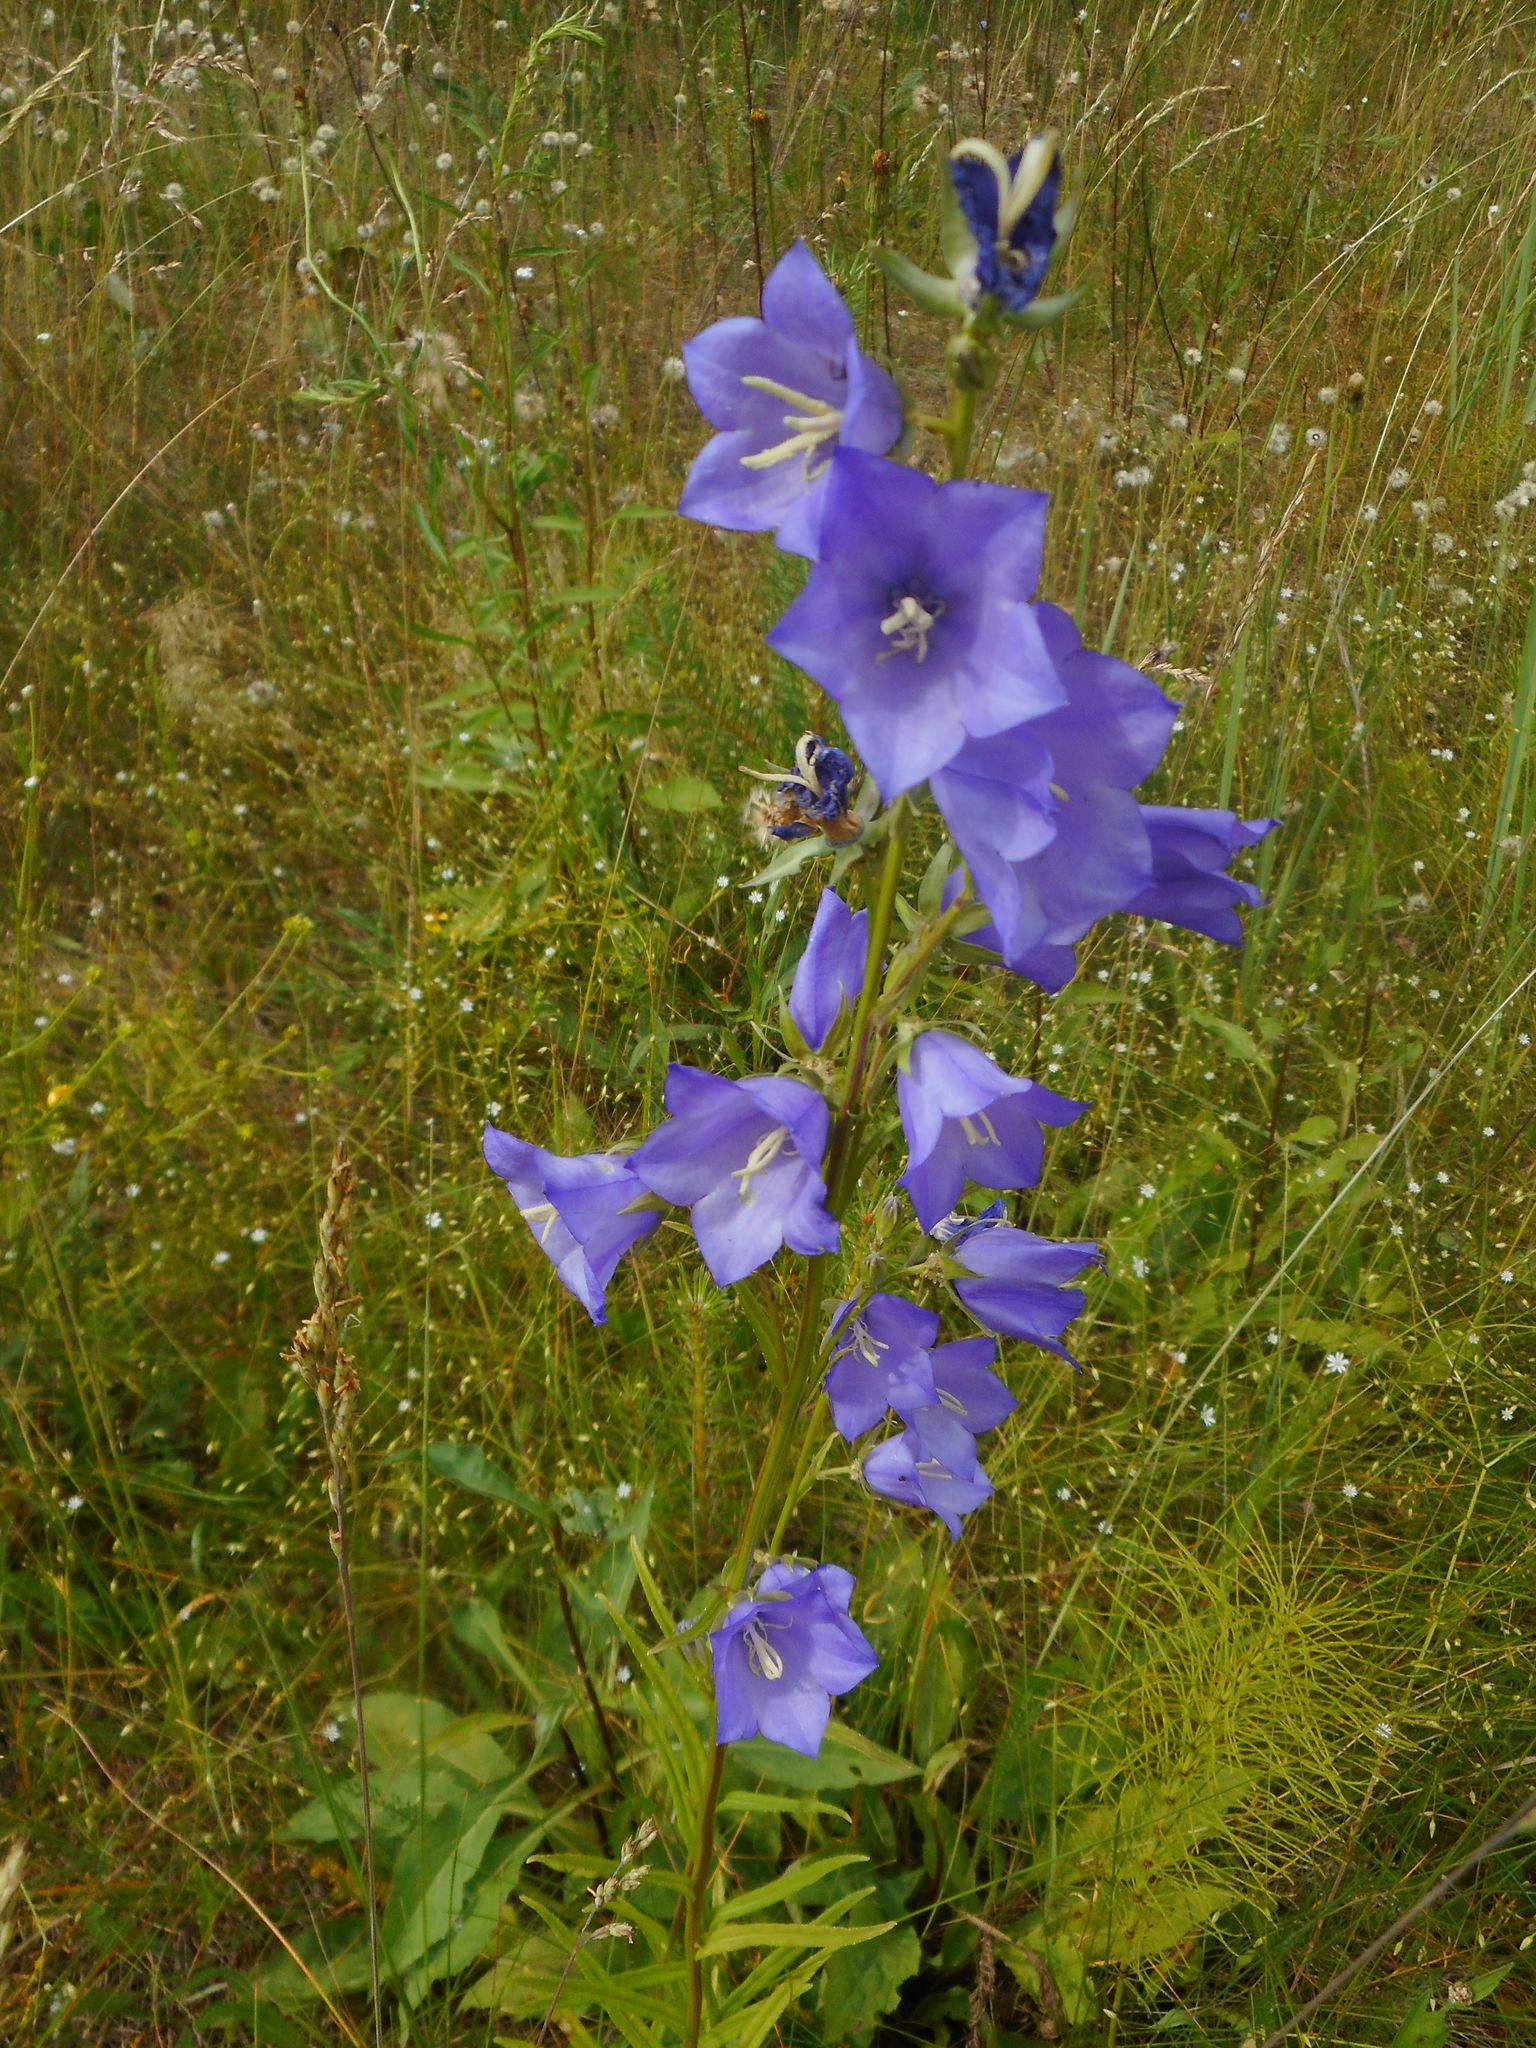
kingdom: Plantae
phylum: Tracheophyta
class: Magnoliopsida
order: Asterales
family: Campanulaceae
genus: Campanula
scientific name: Campanula persicifolia
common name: Peach-leaved bellflower
